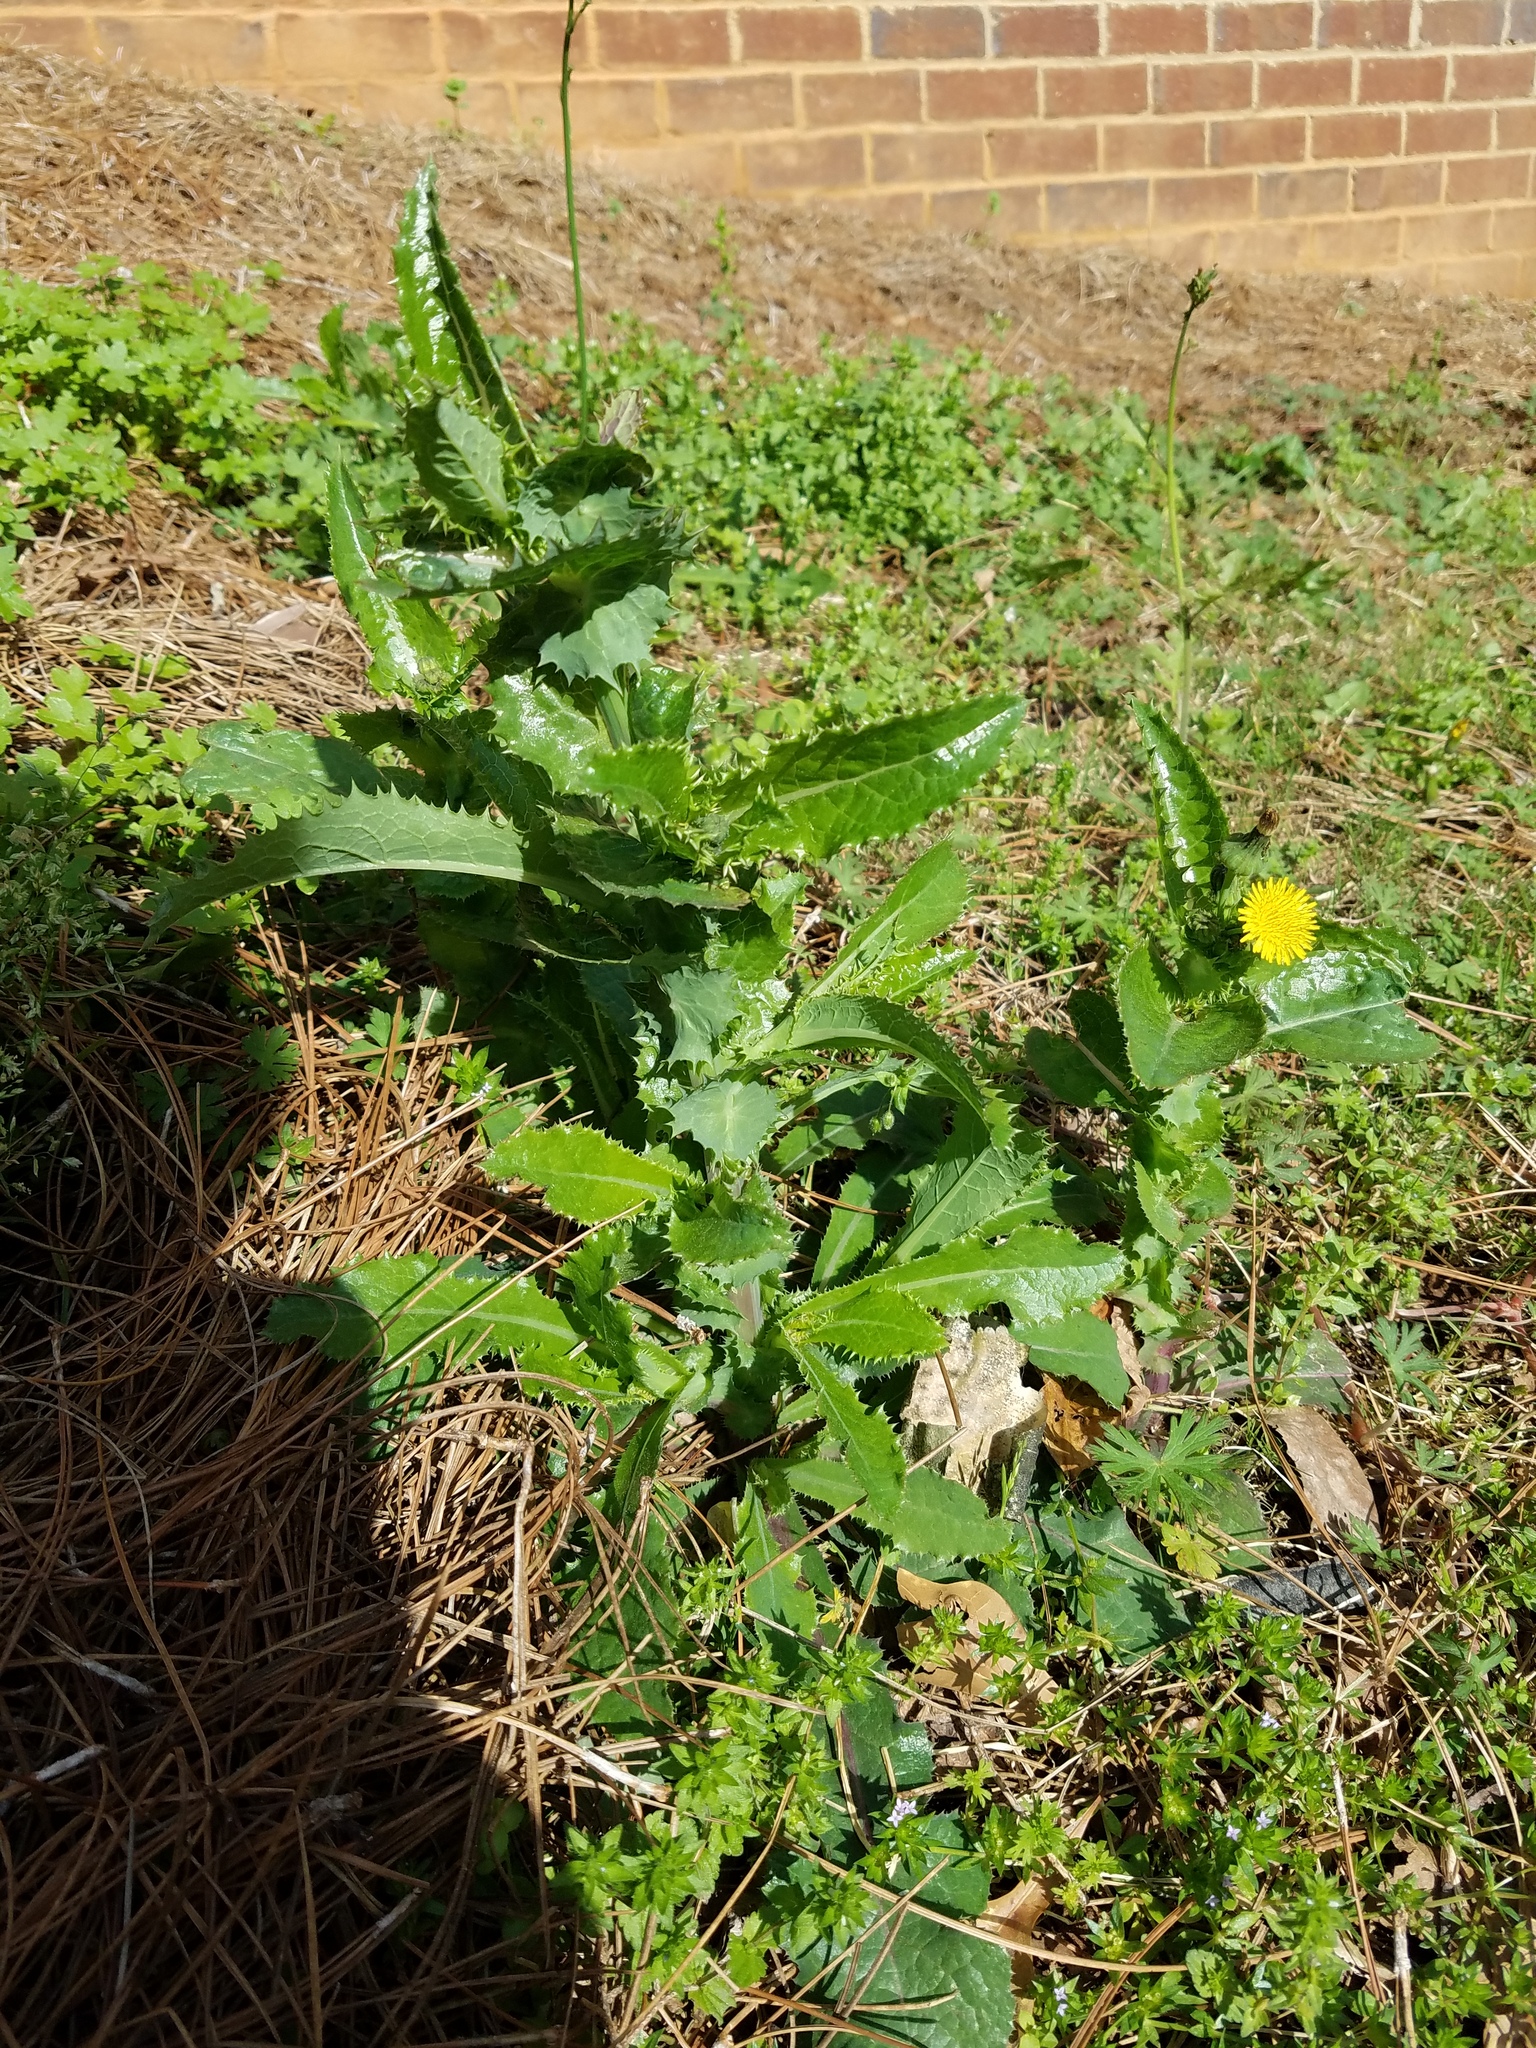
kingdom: Plantae
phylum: Tracheophyta
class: Magnoliopsida
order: Asterales
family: Asteraceae
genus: Sonchus
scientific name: Sonchus asper
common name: Prickly sow-thistle
